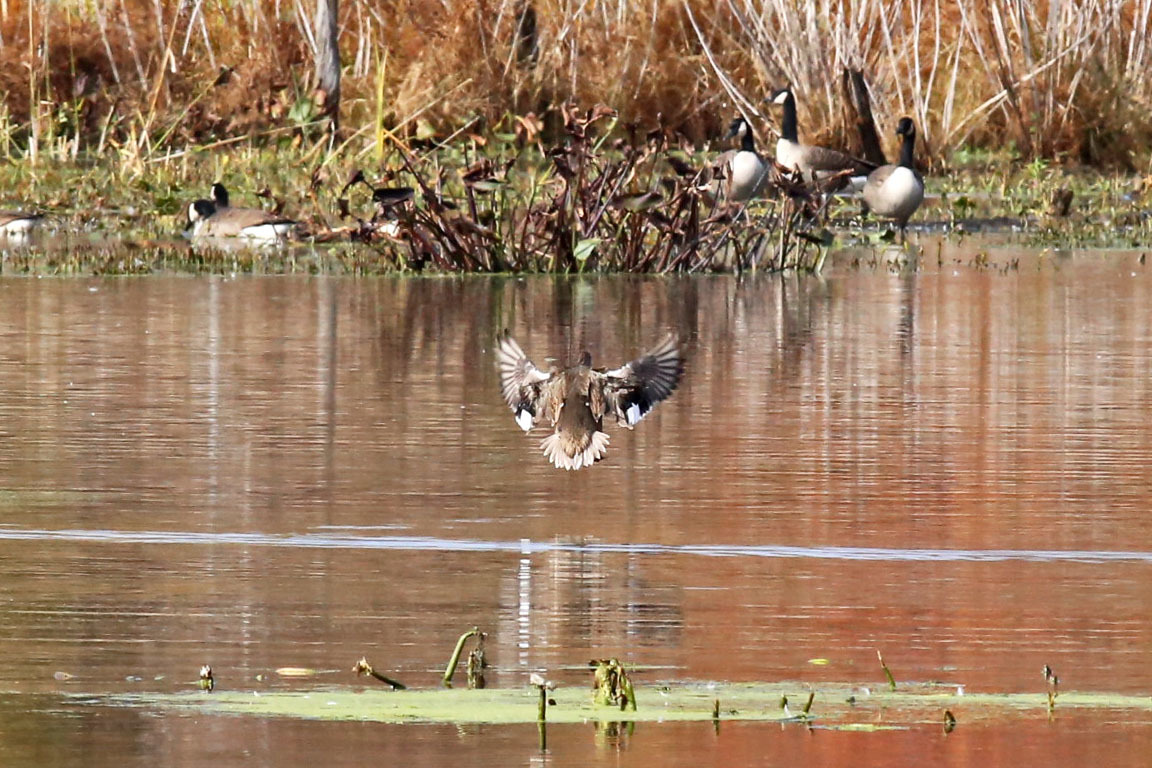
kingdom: Animalia
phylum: Chordata
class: Aves
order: Anseriformes
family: Anatidae
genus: Mareca
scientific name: Mareca strepera
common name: Gadwall
